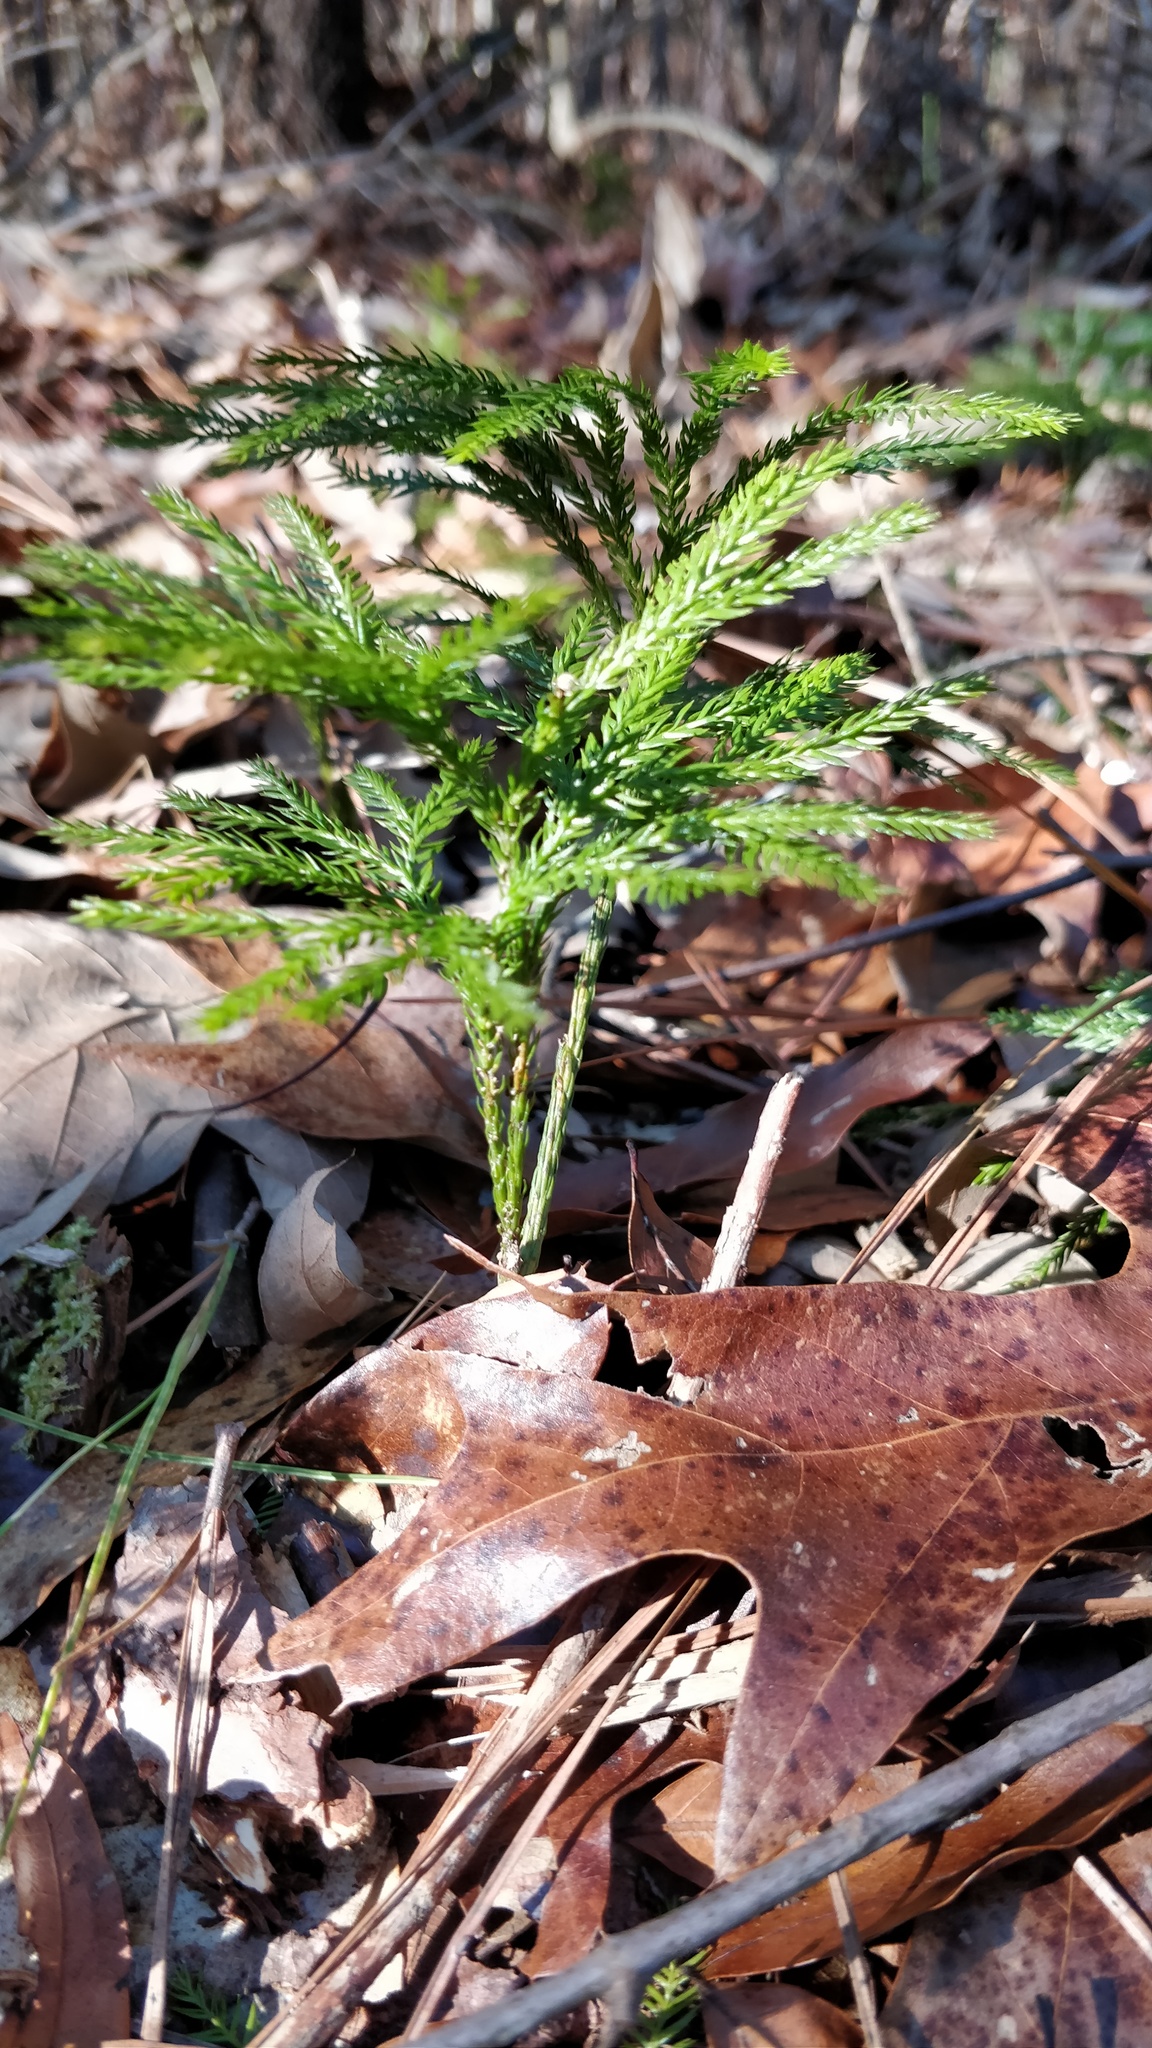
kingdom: Plantae
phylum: Tracheophyta
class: Lycopodiopsida
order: Lycopodiales
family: Lycopodiaceae
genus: Dendrolycopodium
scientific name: Dendrolycopodium obscurum
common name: Common ground-pine
